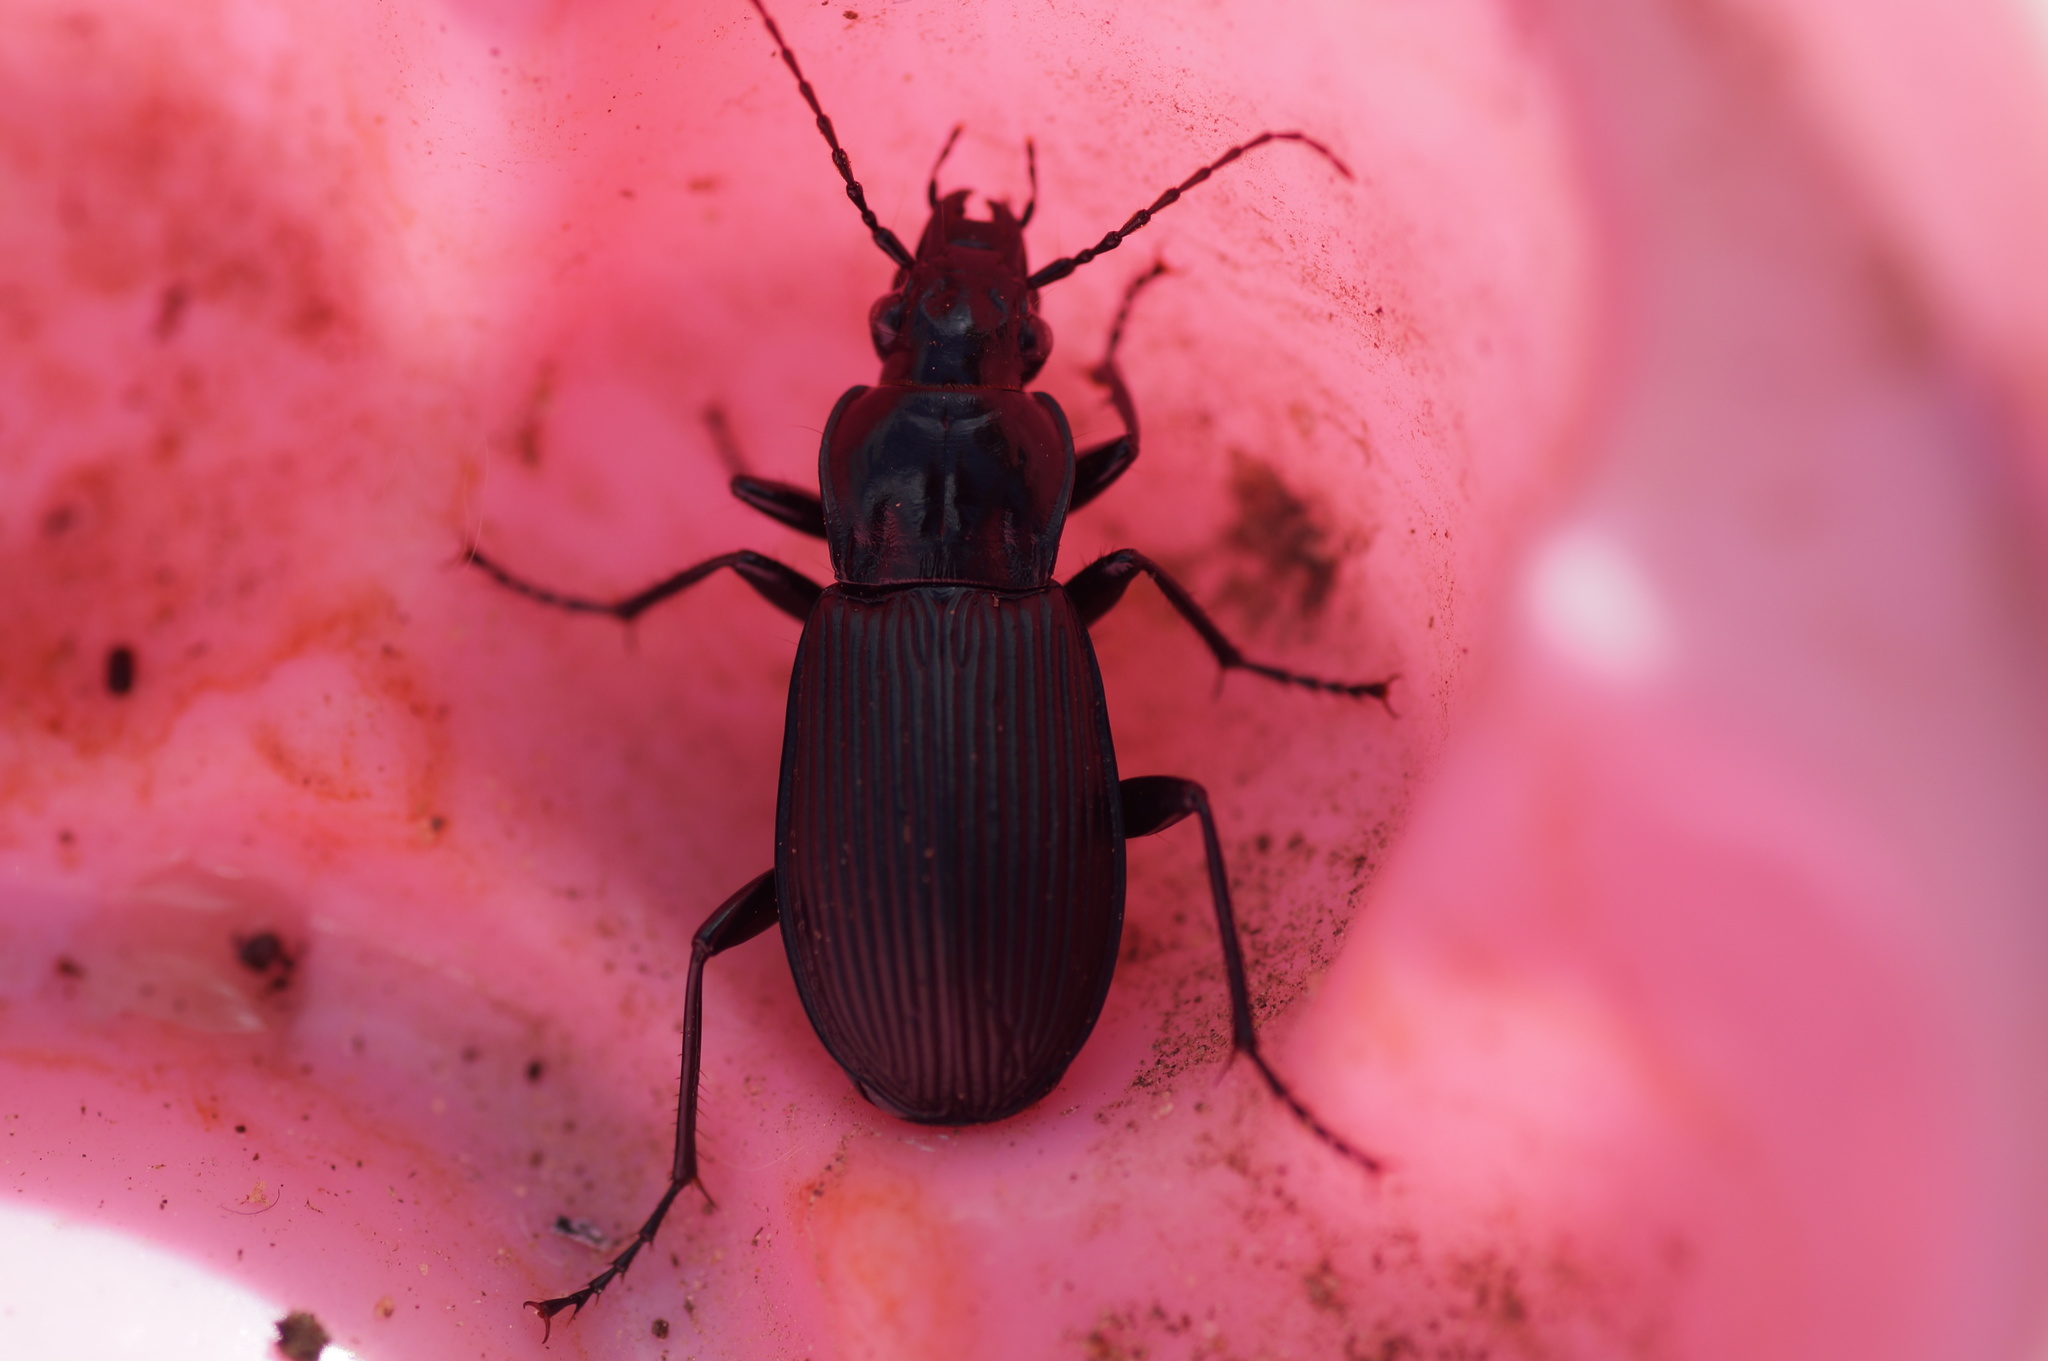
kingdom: Animalia
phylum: Arthropoda
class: Insecta
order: Coleoptera
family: Carabidae
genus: Pterostichus
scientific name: Pterostichus niger
